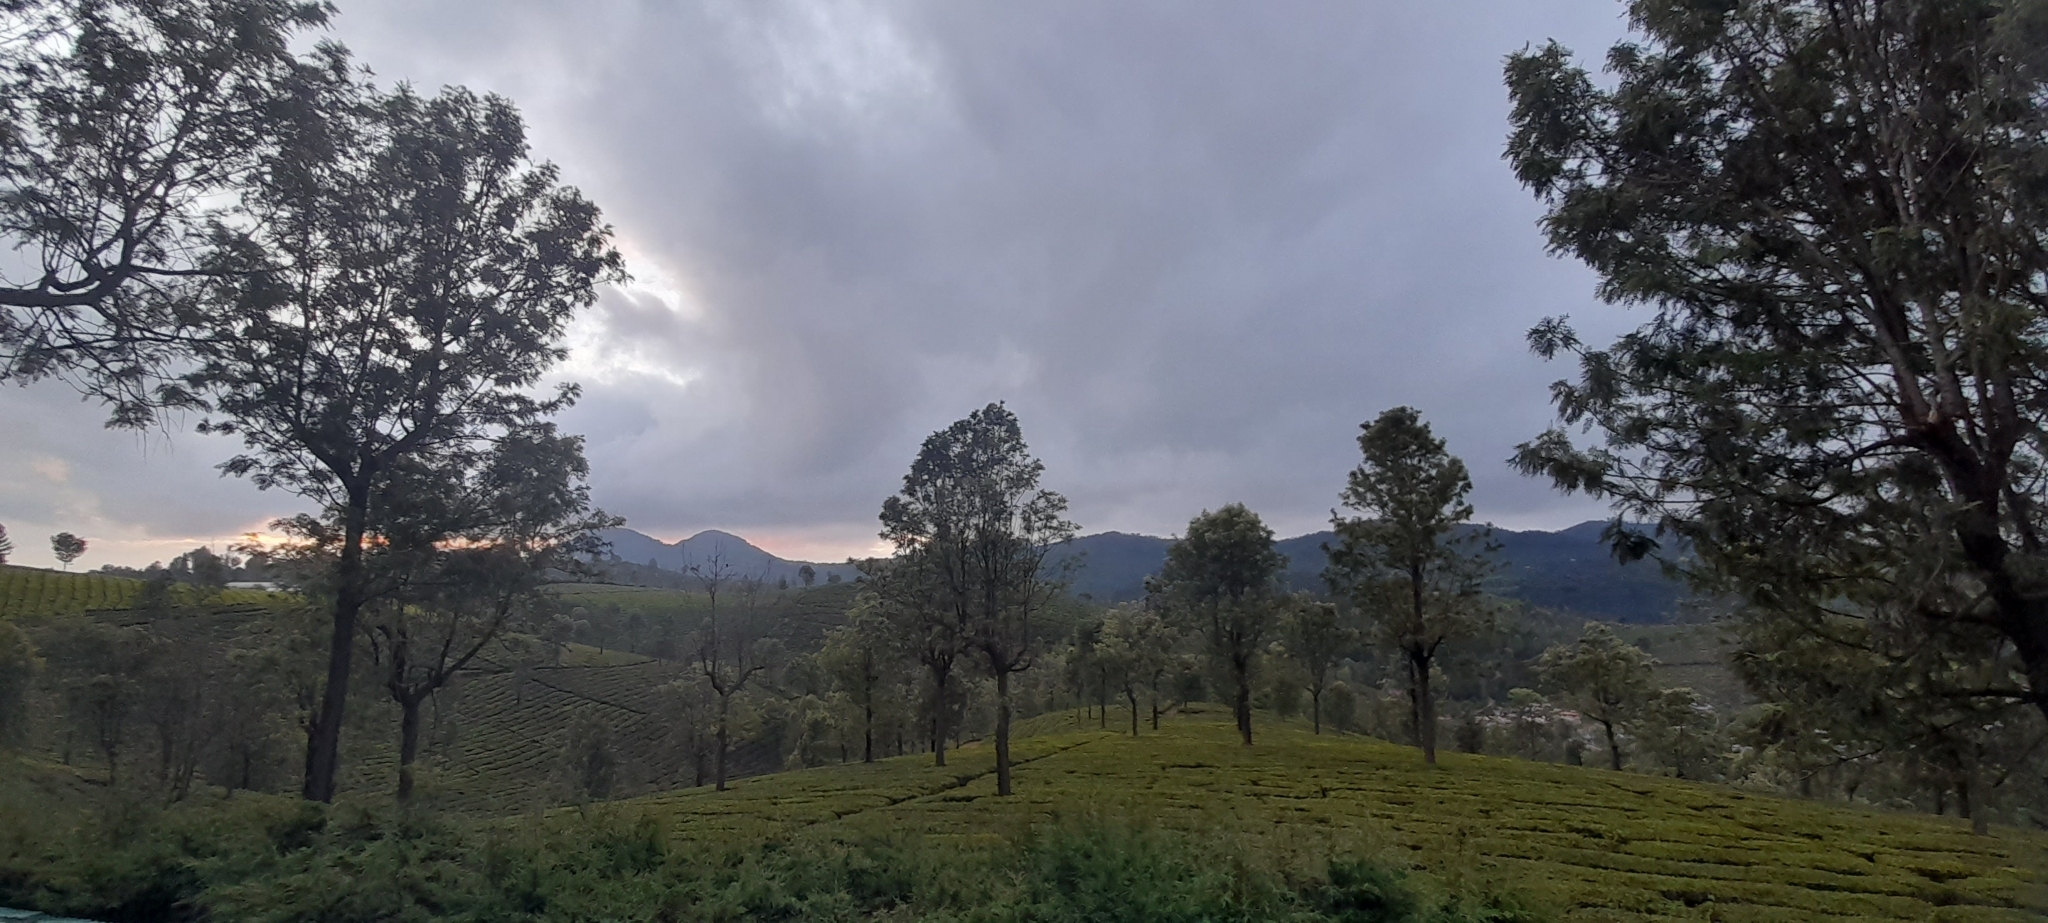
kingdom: Plantae
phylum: Tracheophyta
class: Magnoliopsida
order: Proteales
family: Proteaceae
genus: Grevillea
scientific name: Grevillea robusta
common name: Silkoak
